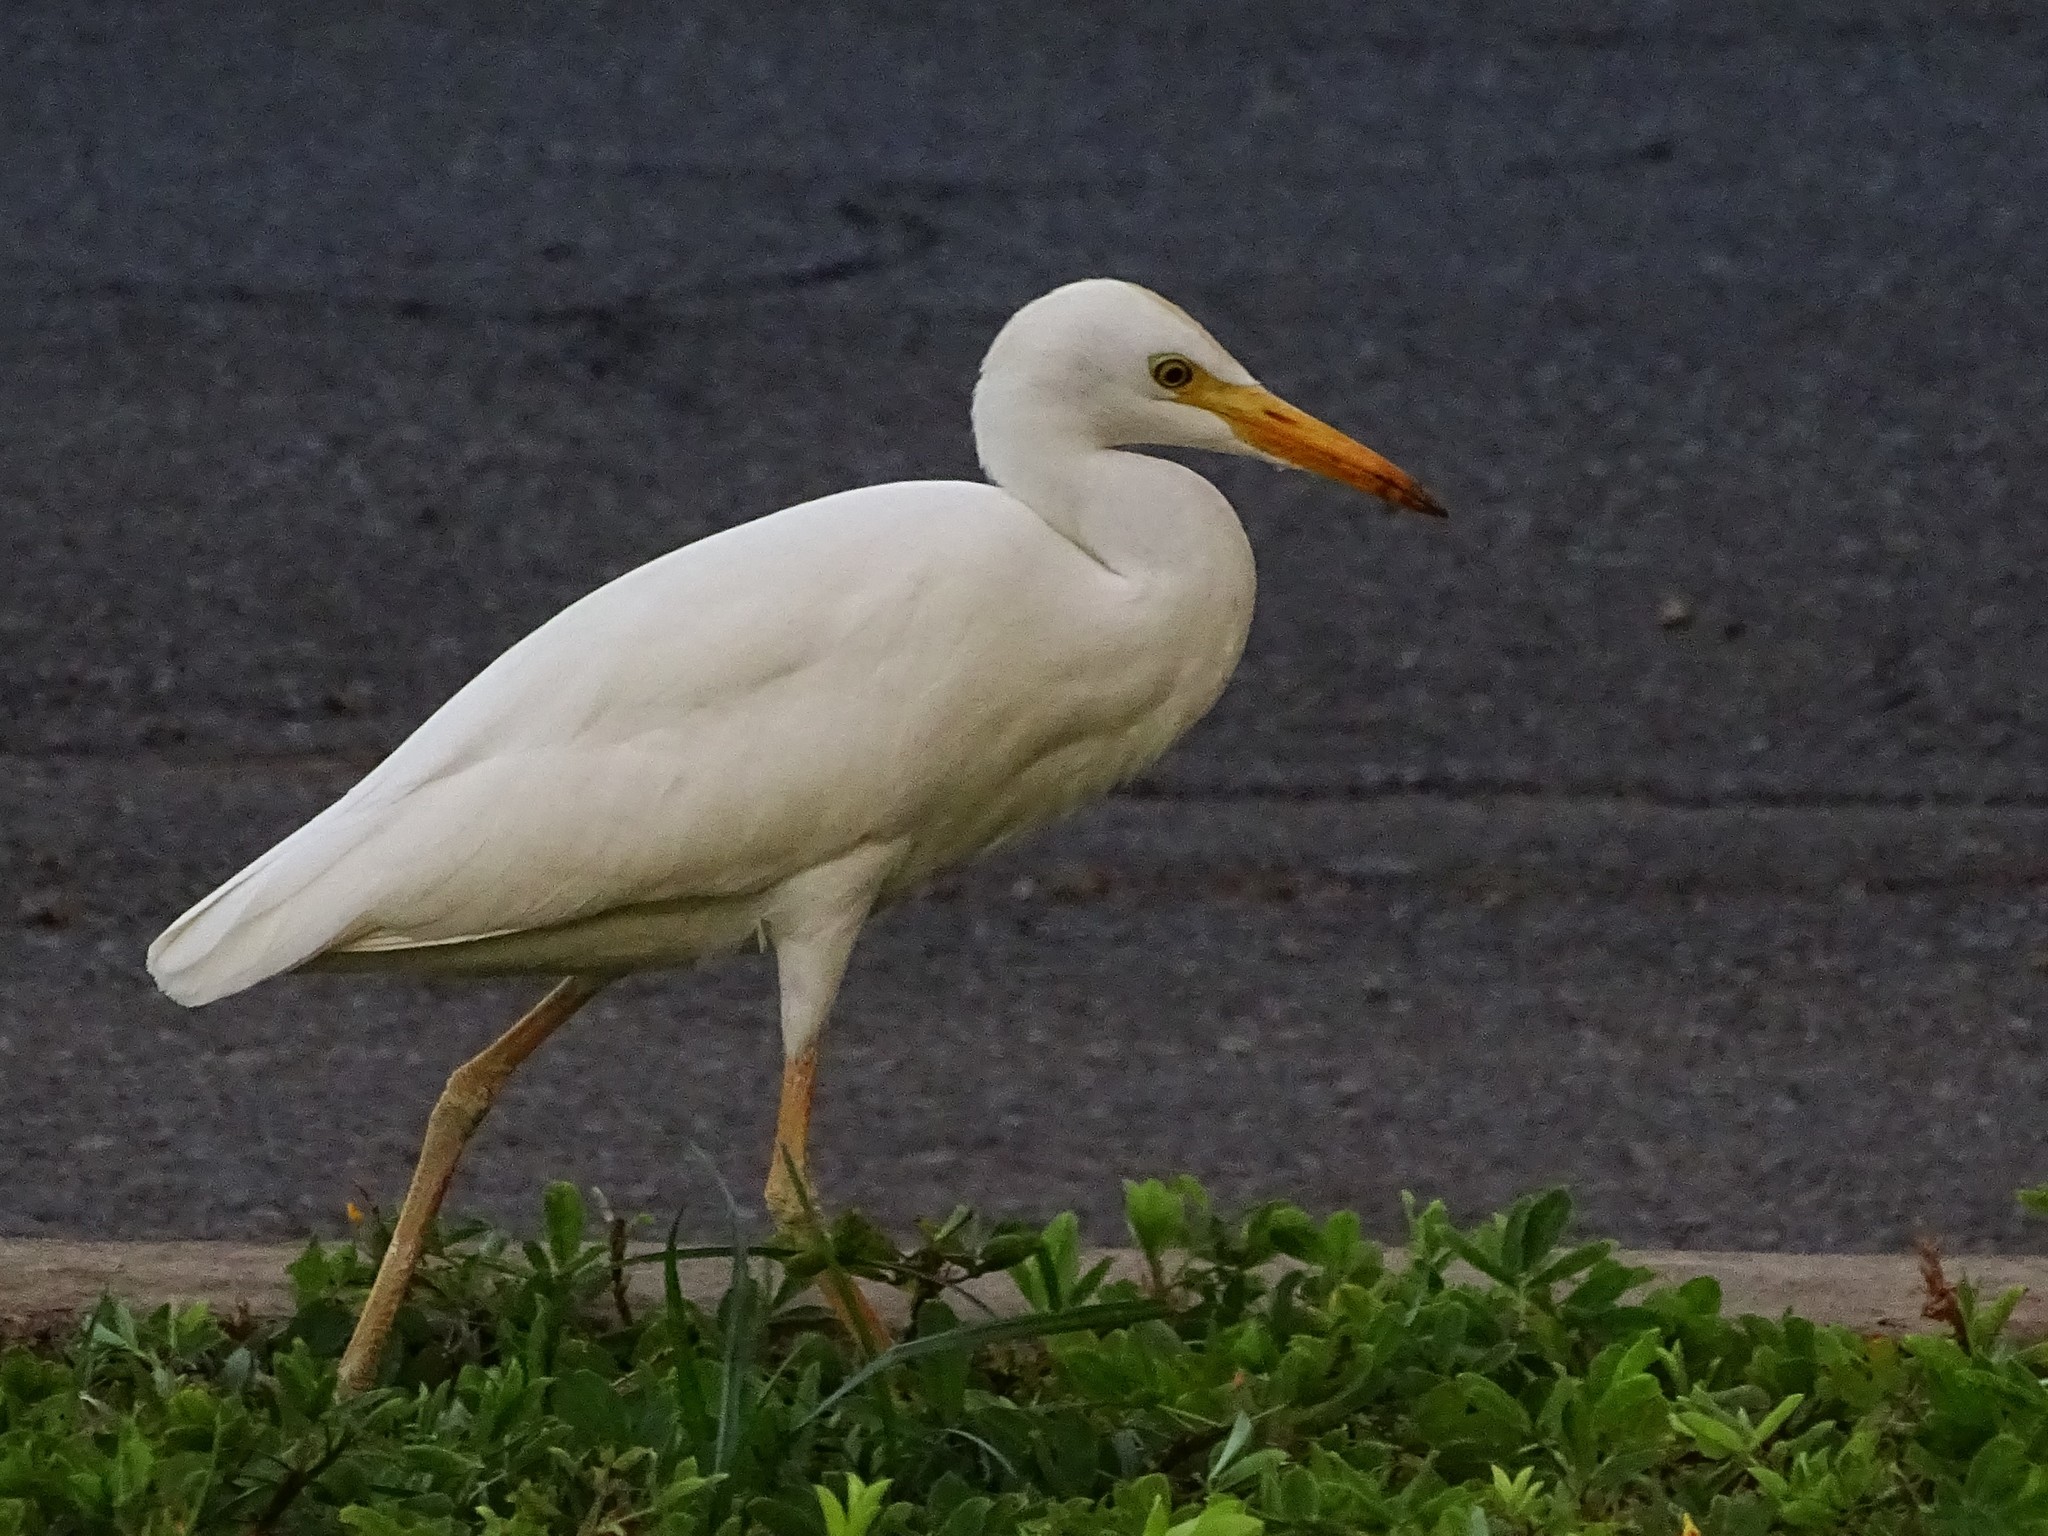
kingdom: Animalia
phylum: Chordata
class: Aves
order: Pelecaniformes
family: Ardeidae
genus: Bubulcus
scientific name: Bubulcus ibis
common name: Cattle egret
